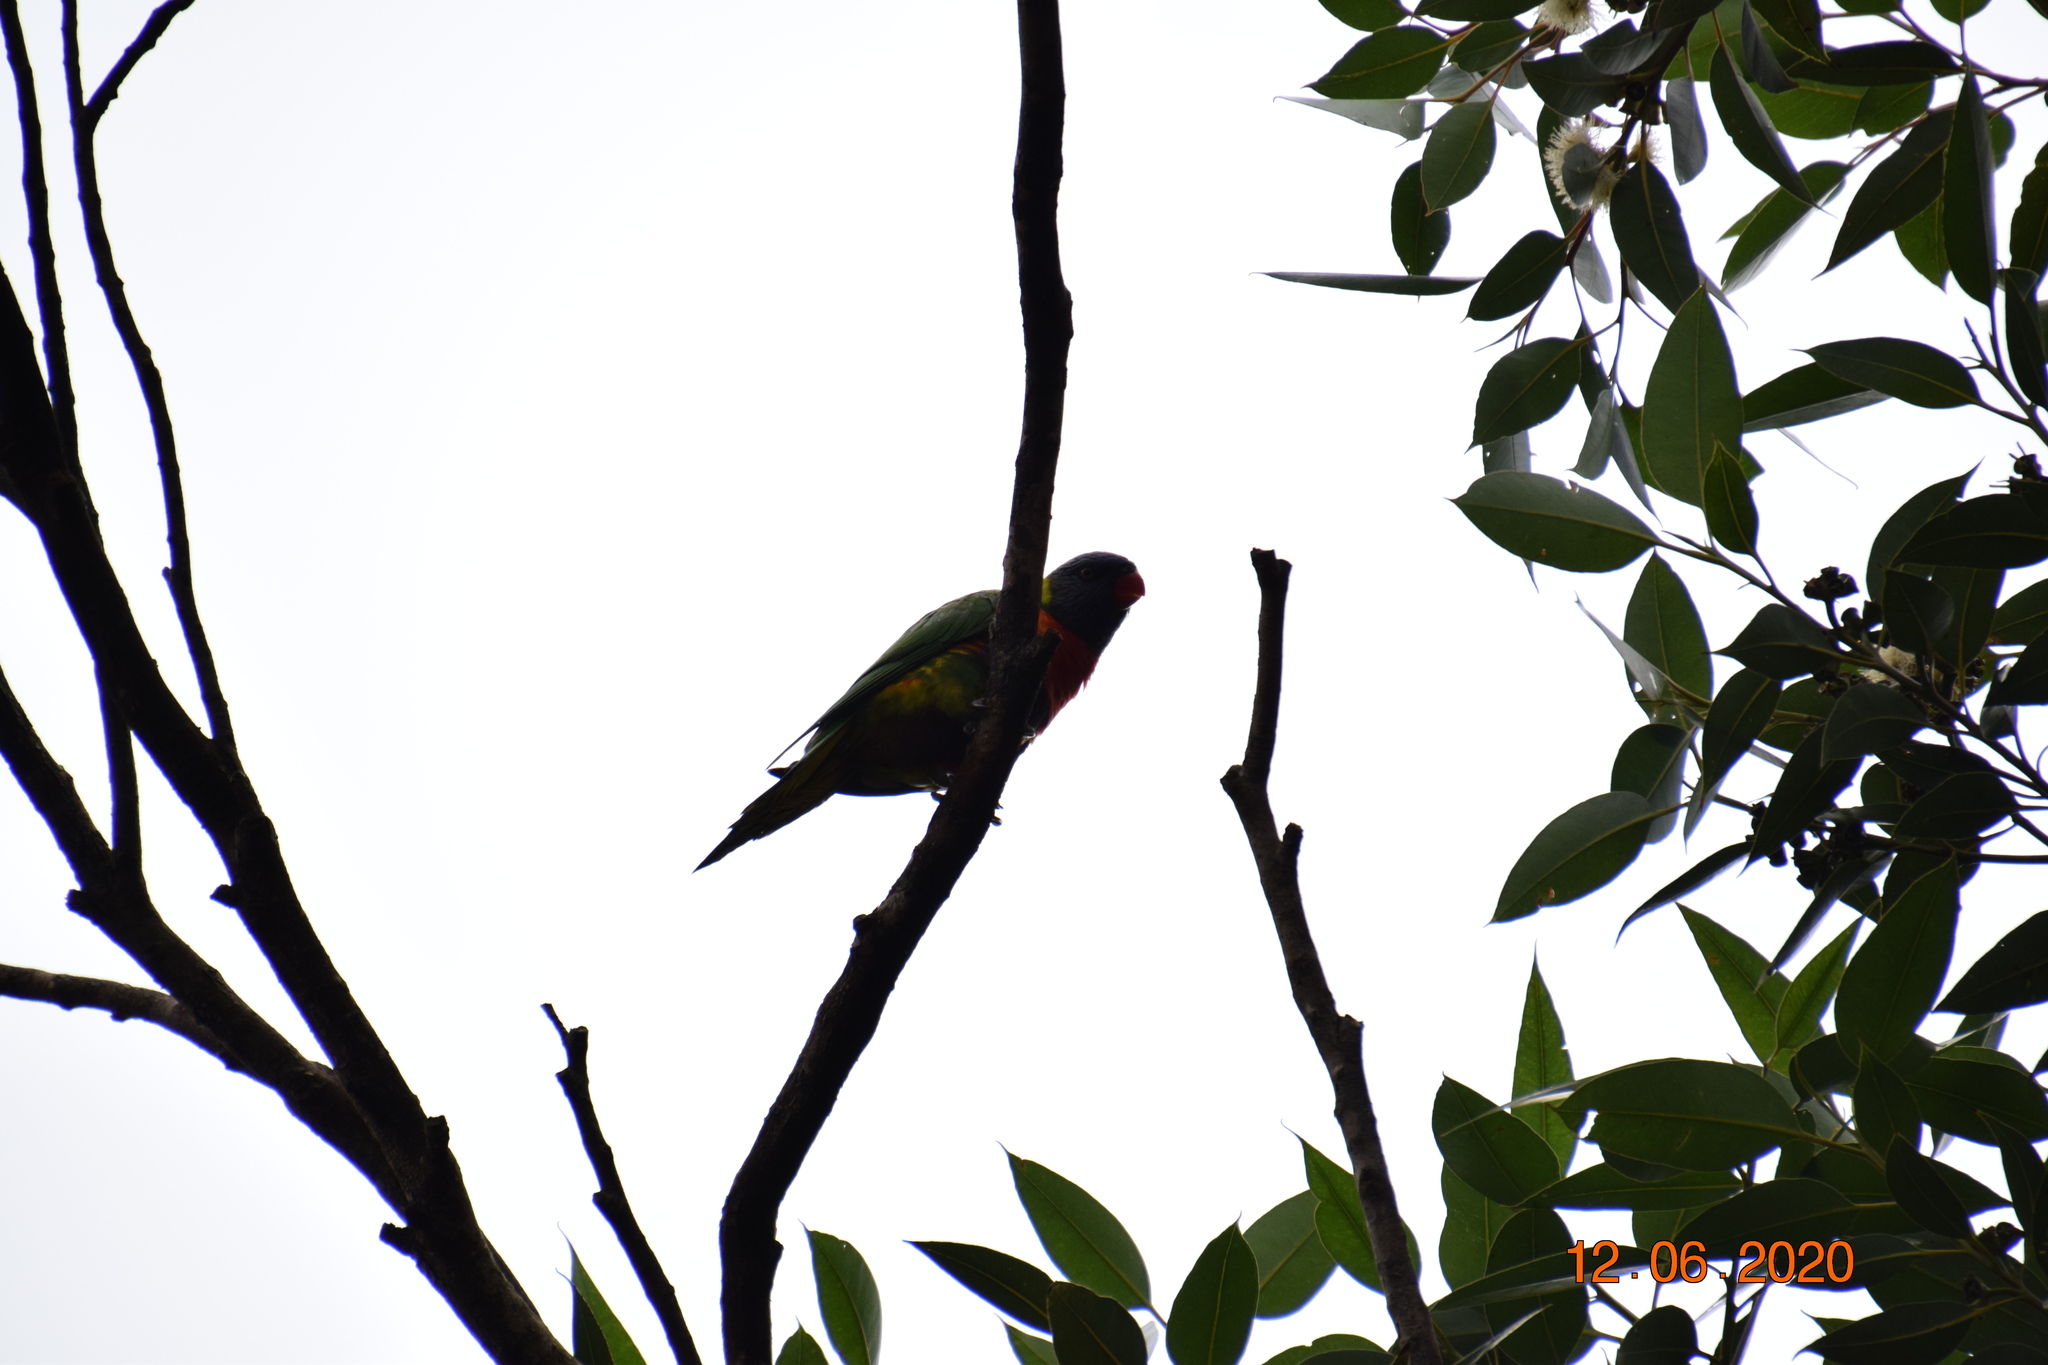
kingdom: Animalia
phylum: Chordata
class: Aves
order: Psittaciformes
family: Psittacidae
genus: Trichoglossus
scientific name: Trichoglossus haematodus
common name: Coconut lorikeet
